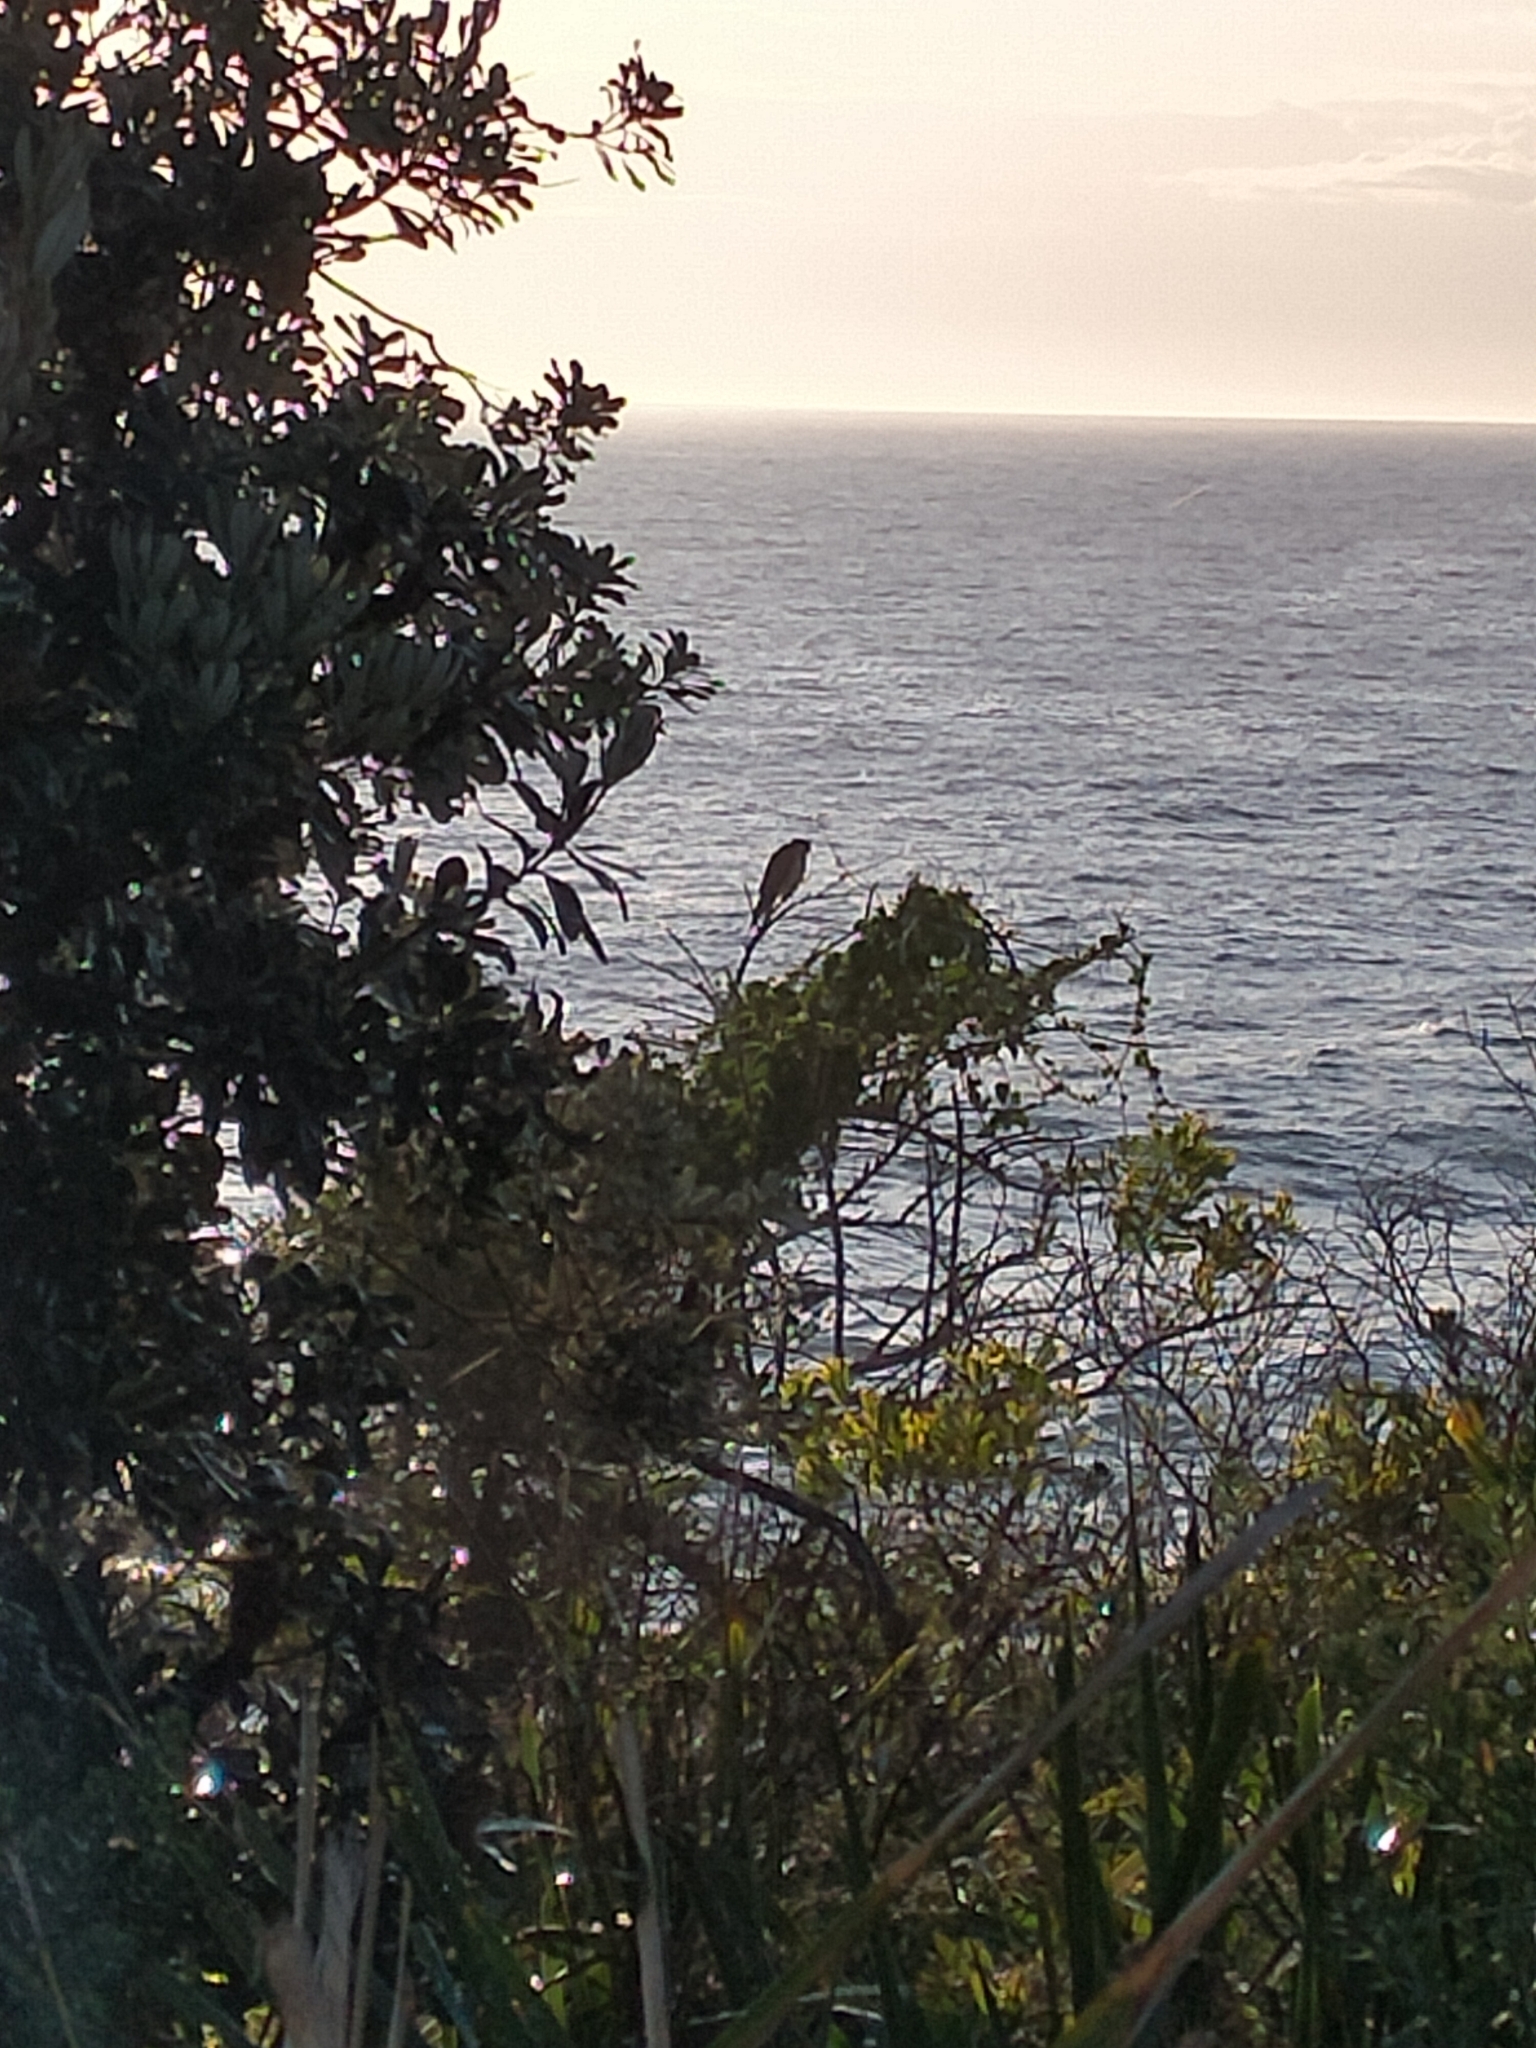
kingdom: Animalia
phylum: Chordata
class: Aves
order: Falconiformes
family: Falconidae
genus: Falco
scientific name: Falco cenchroides
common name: Nankeen kestrel
